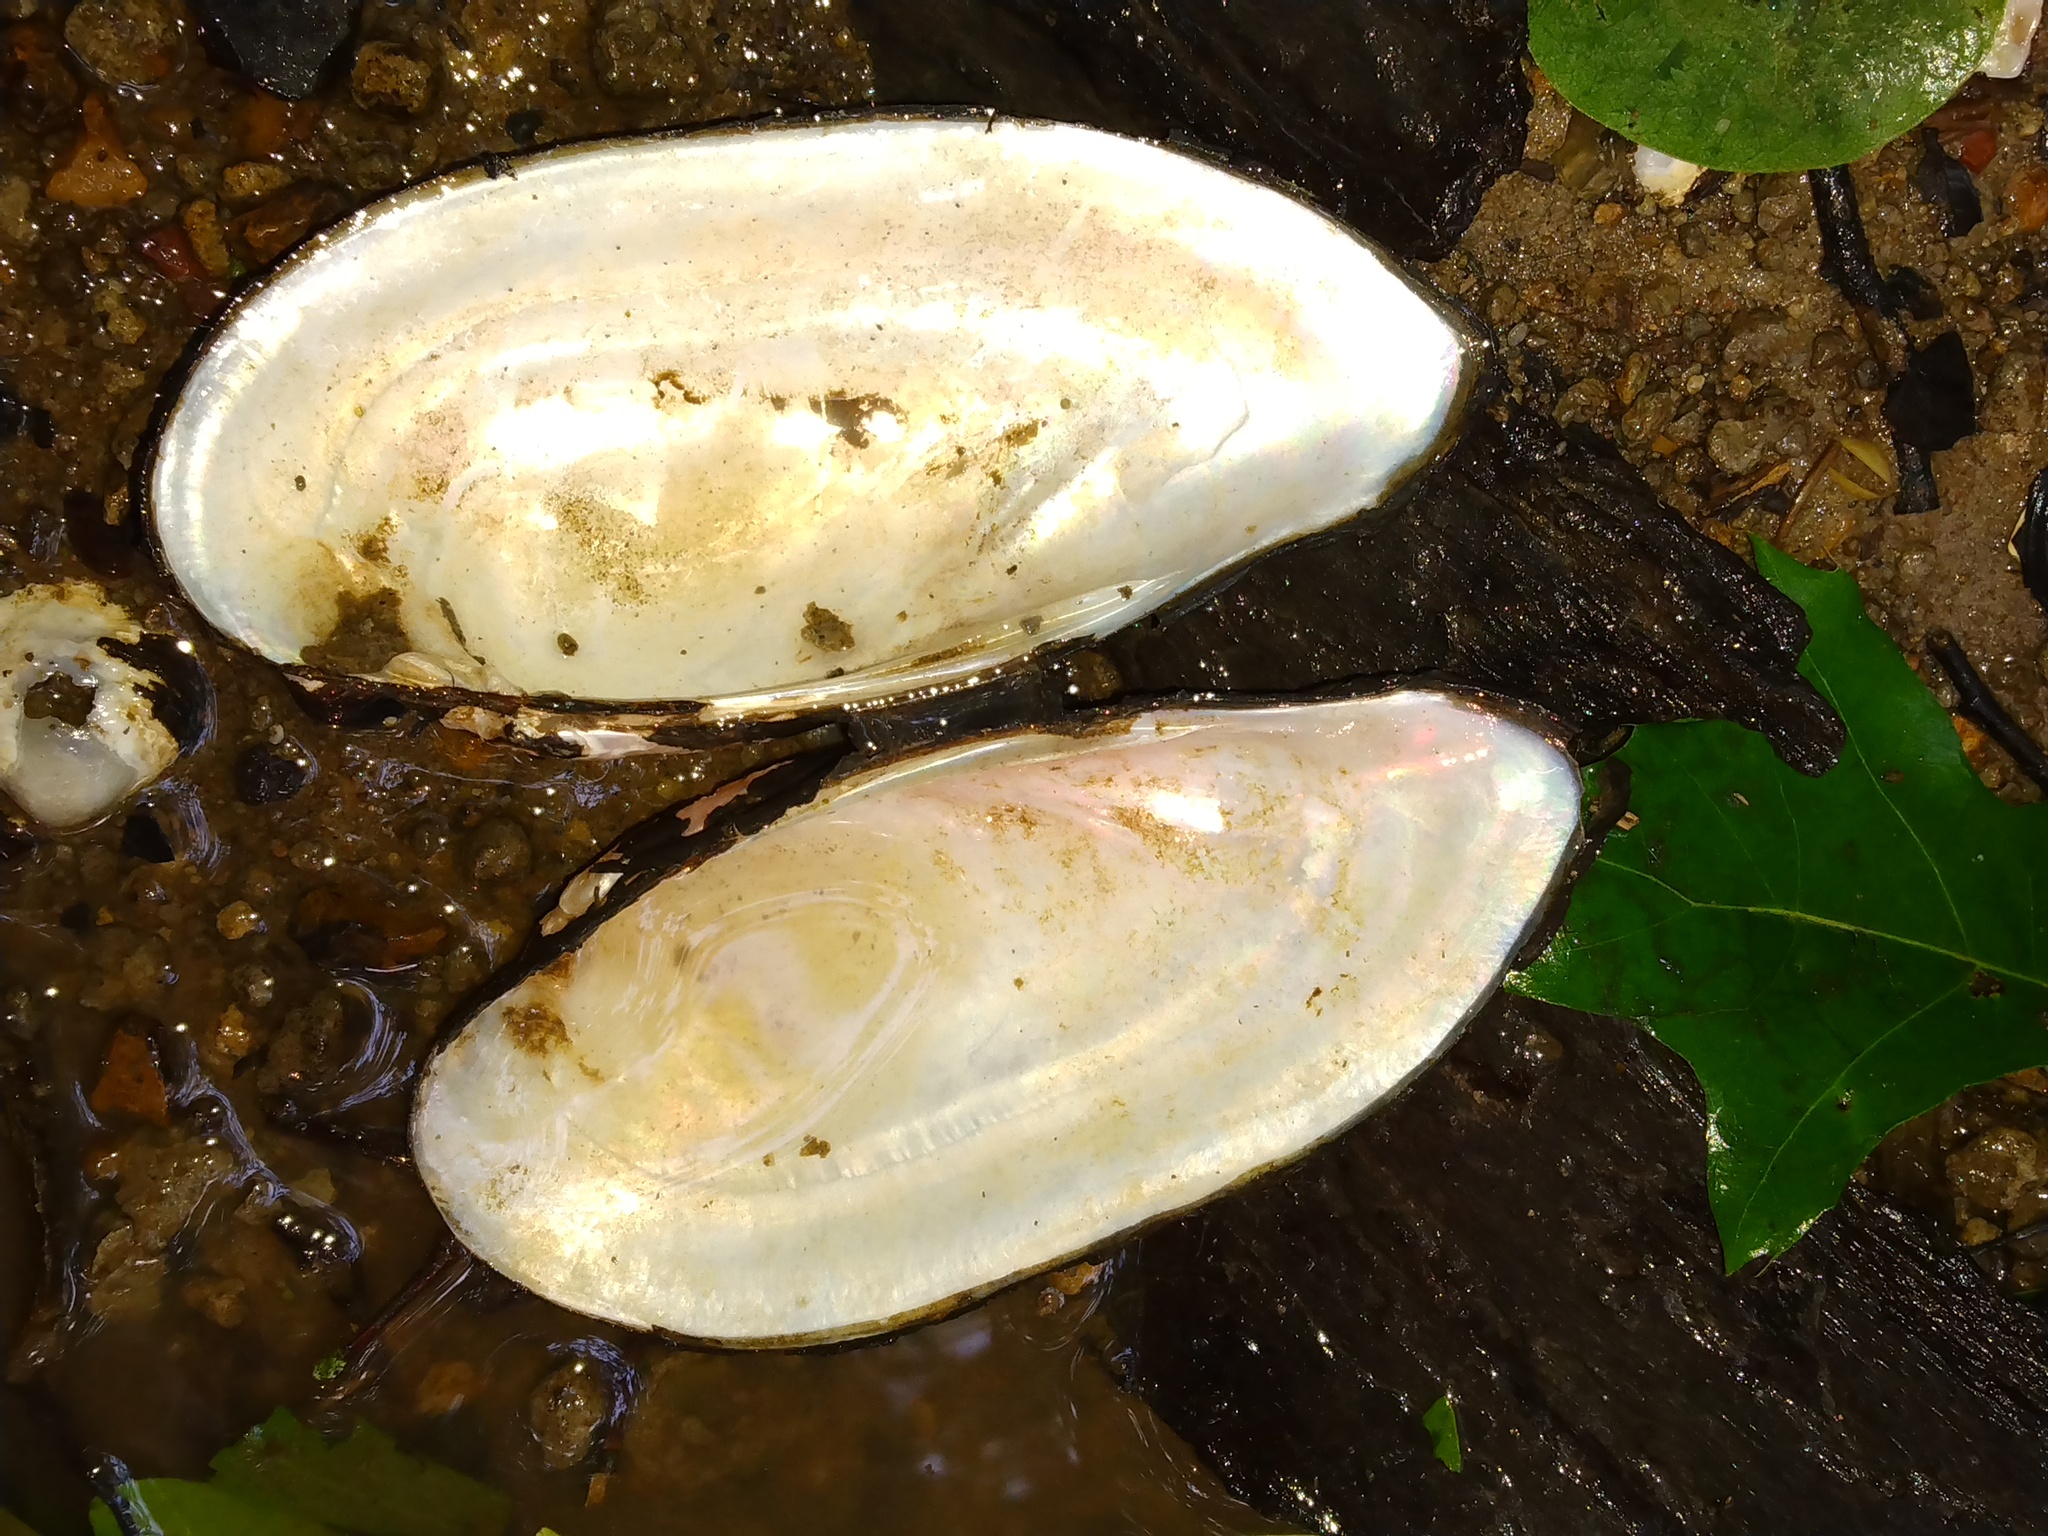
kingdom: Animalia
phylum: Mollusca
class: Bivalvia
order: Unionida
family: Unionidae
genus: Lampsilis
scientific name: Lampsilis teres
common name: Yellow sandshell
